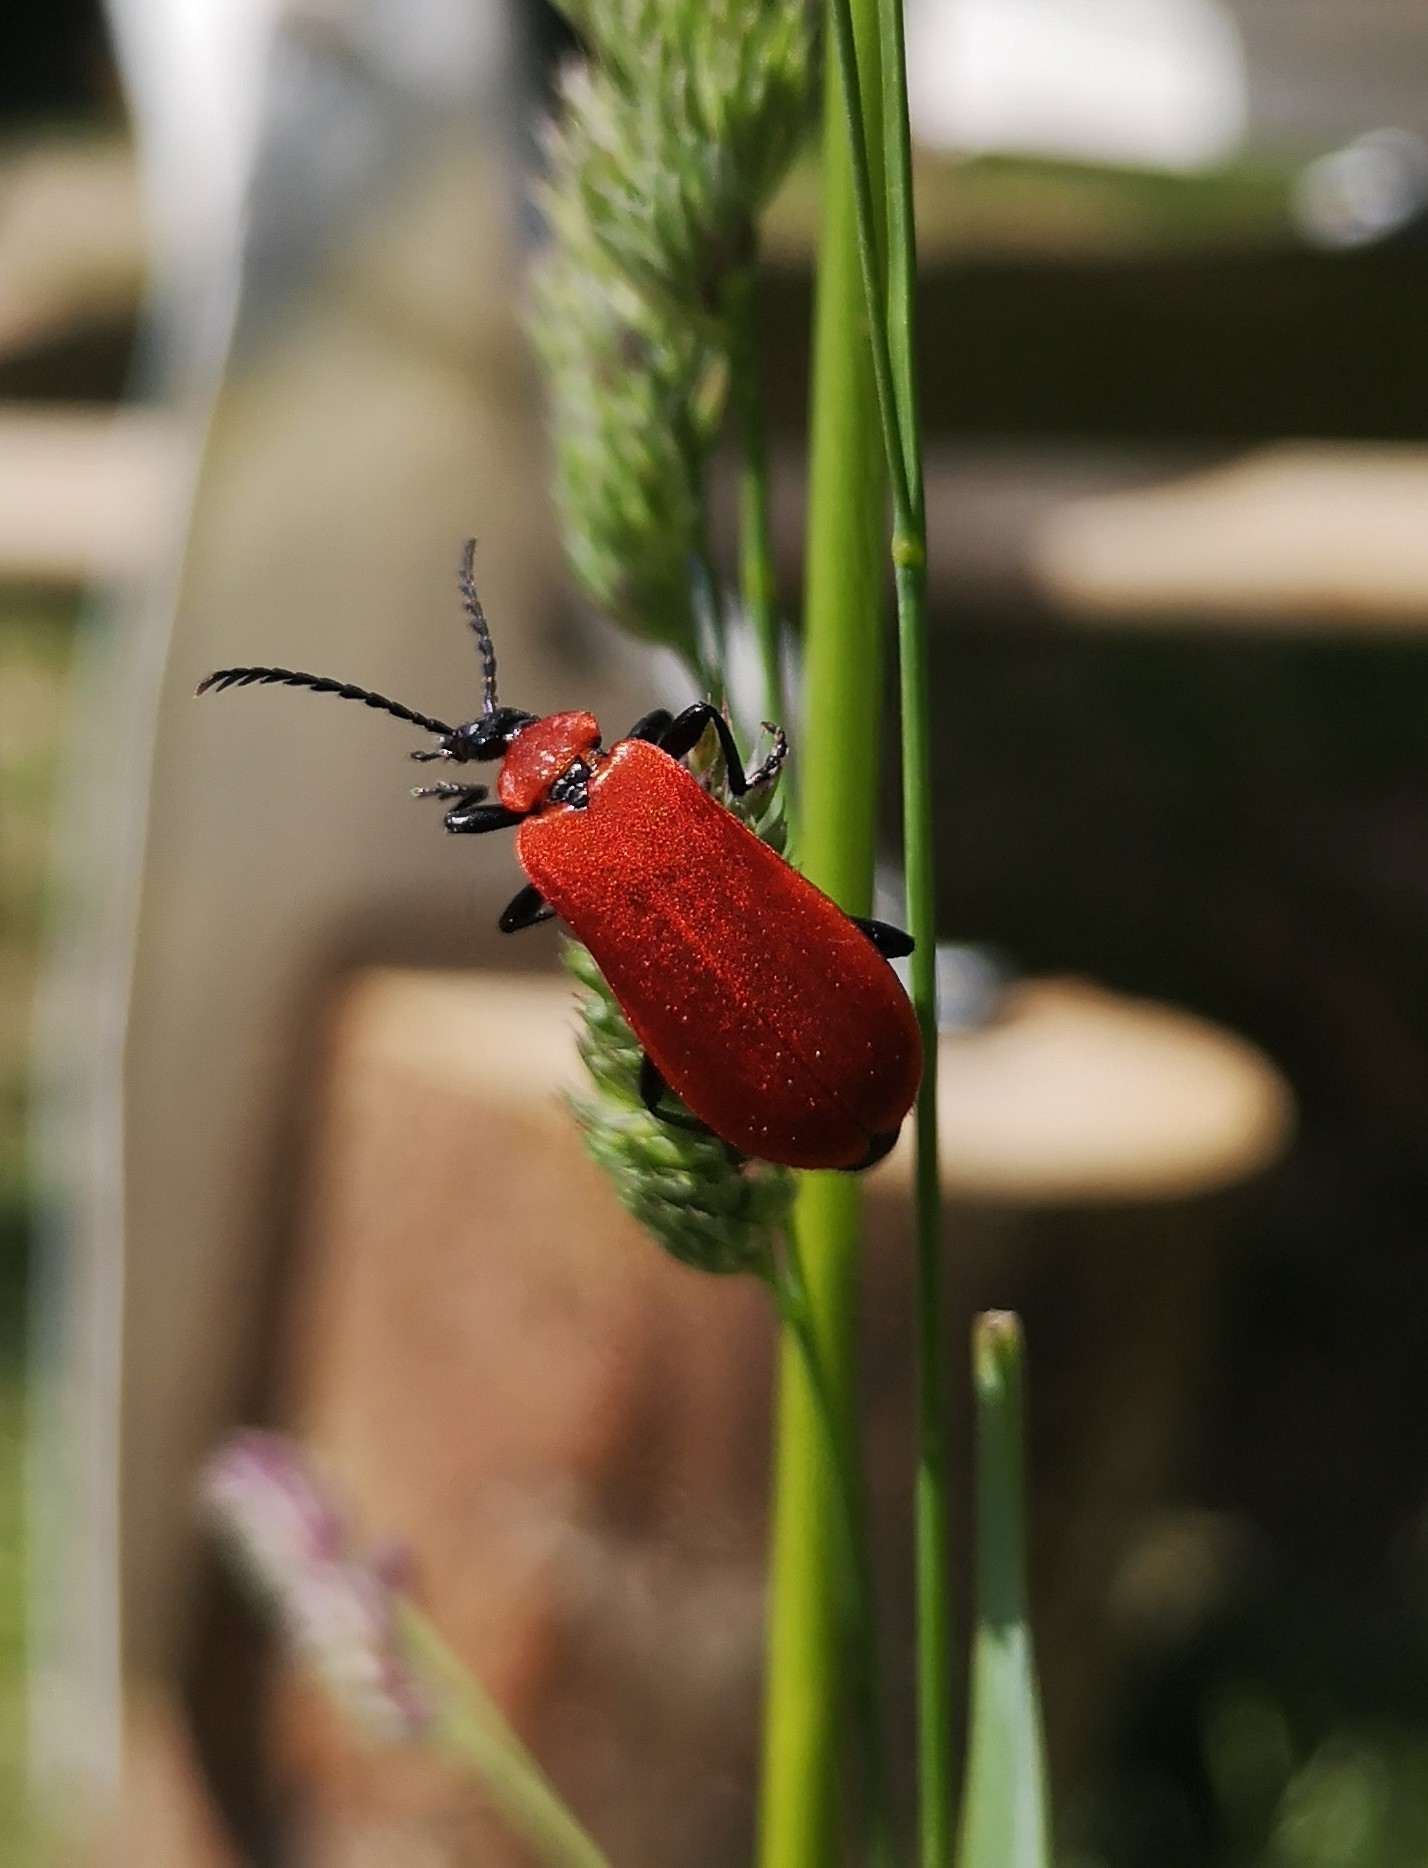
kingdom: Animalia
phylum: Arthropoda
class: Insecta
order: Coleoptera
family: Pyrochroidae
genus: Pyrochroa
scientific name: Pyrochroa coccinea
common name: Black-headed cardinal beetle
